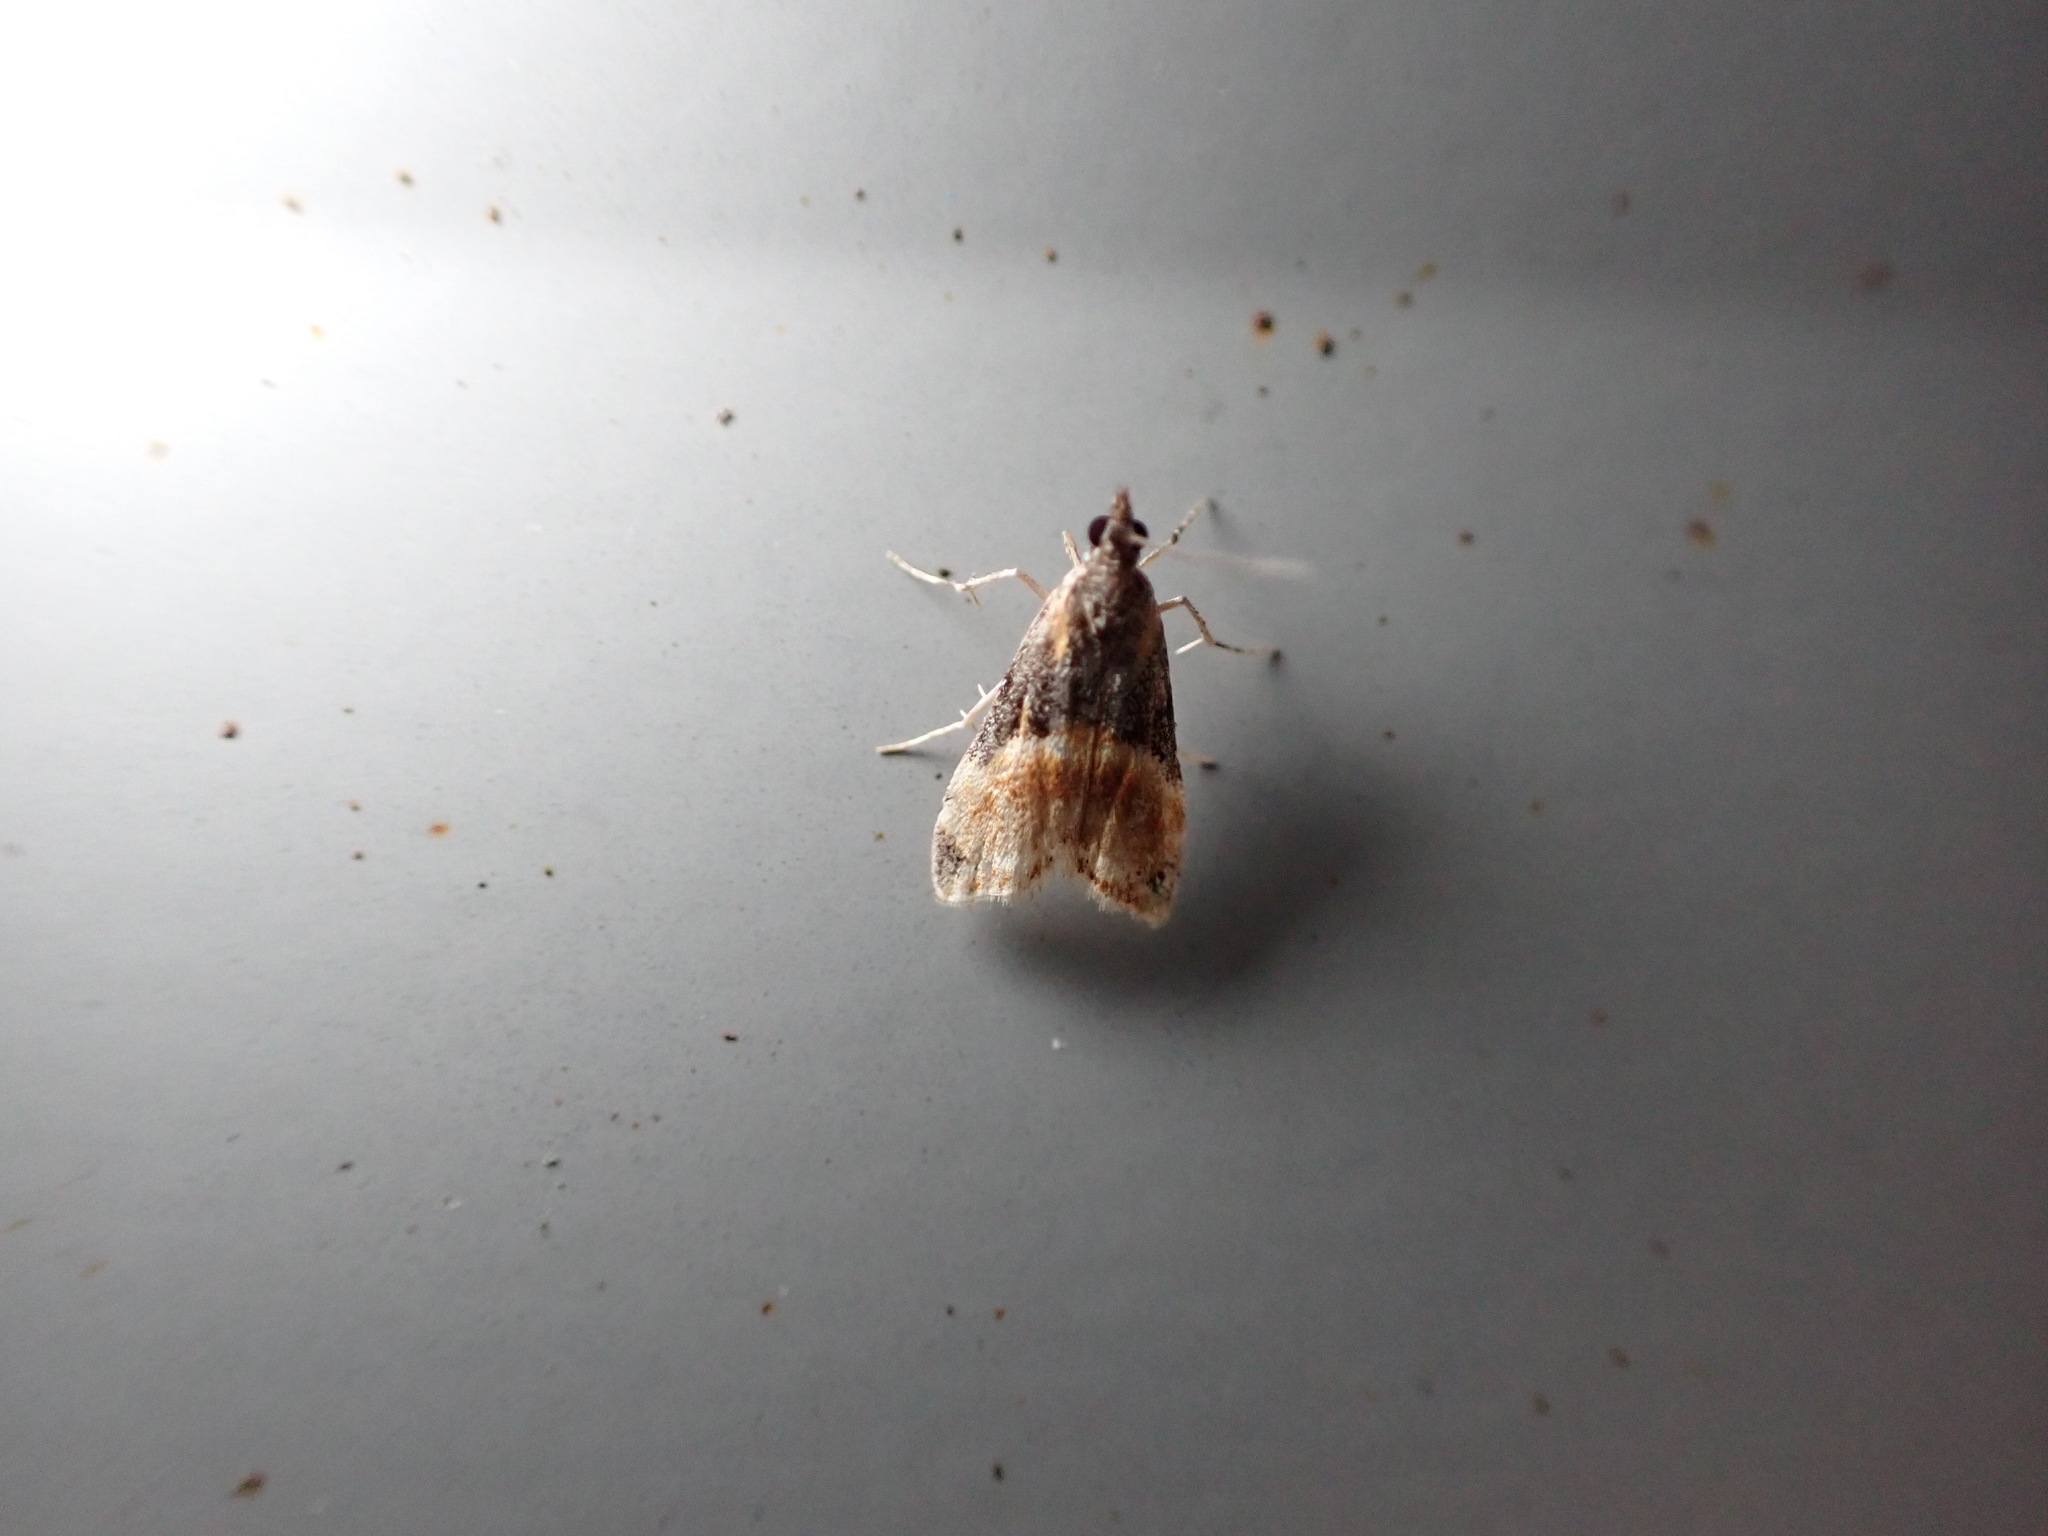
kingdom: Animalia
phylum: Arthropoda
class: Insecta
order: Lepidoptera
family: Crambidae
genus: Eudonia
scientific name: Eudonia chlamydota
